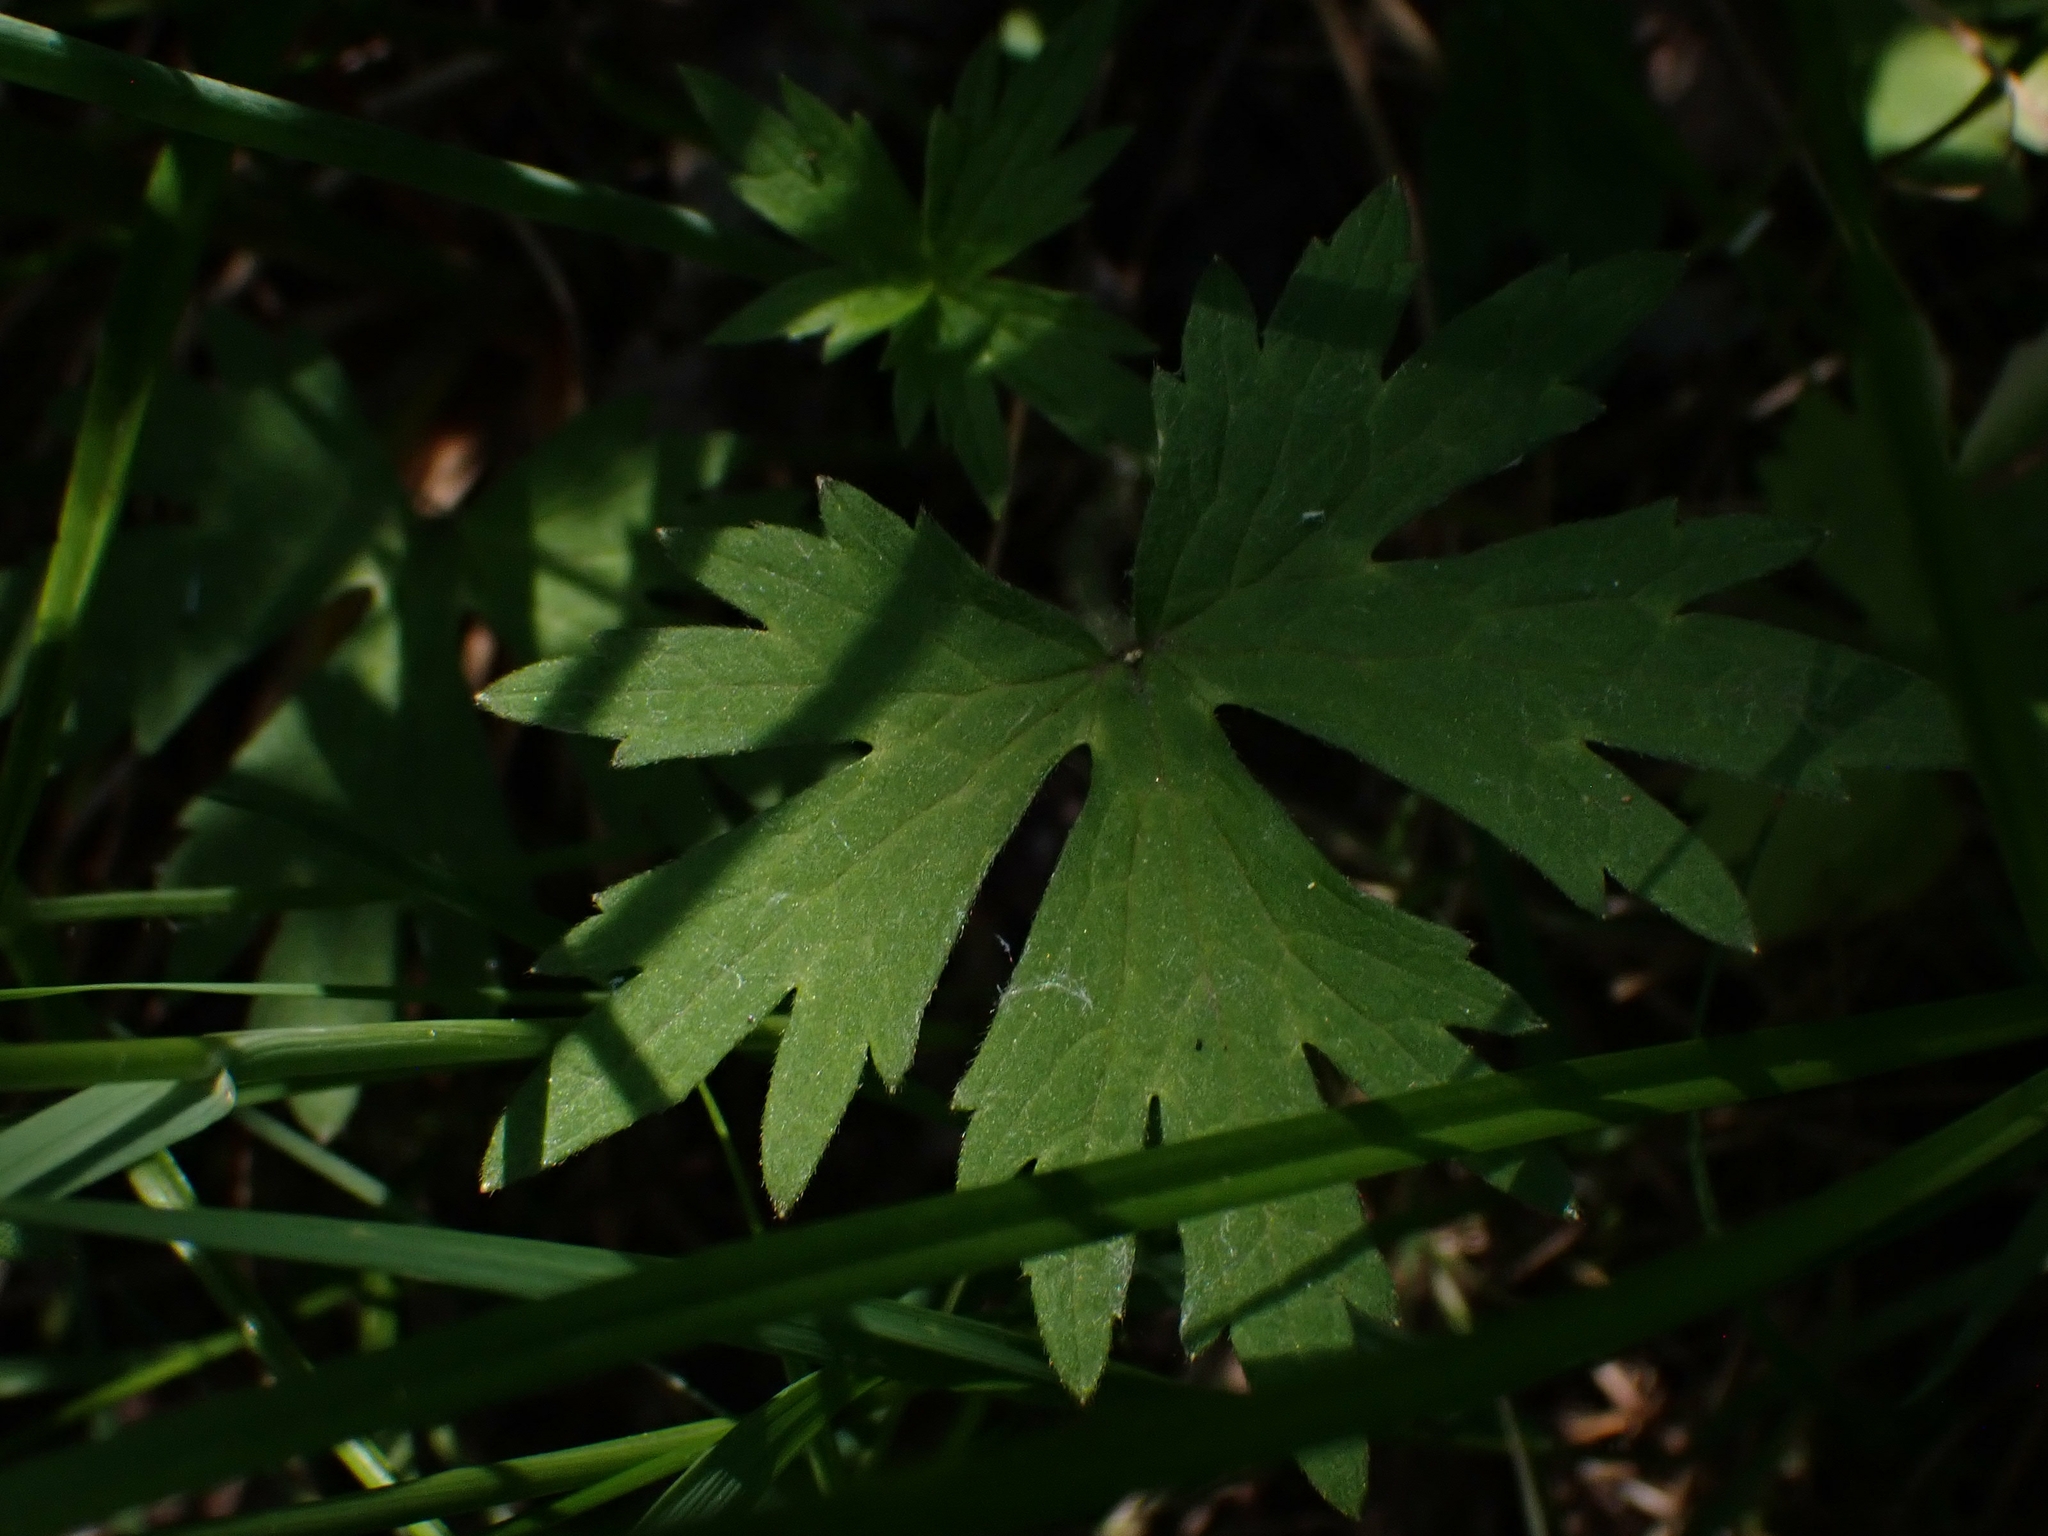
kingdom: Plantae
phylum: Tracheophyta
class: Magnoliopsida
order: Ranunculales
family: Ranunculaceae
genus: Ranunculus
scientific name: Ranunculus acris
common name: Meadow buttercup
